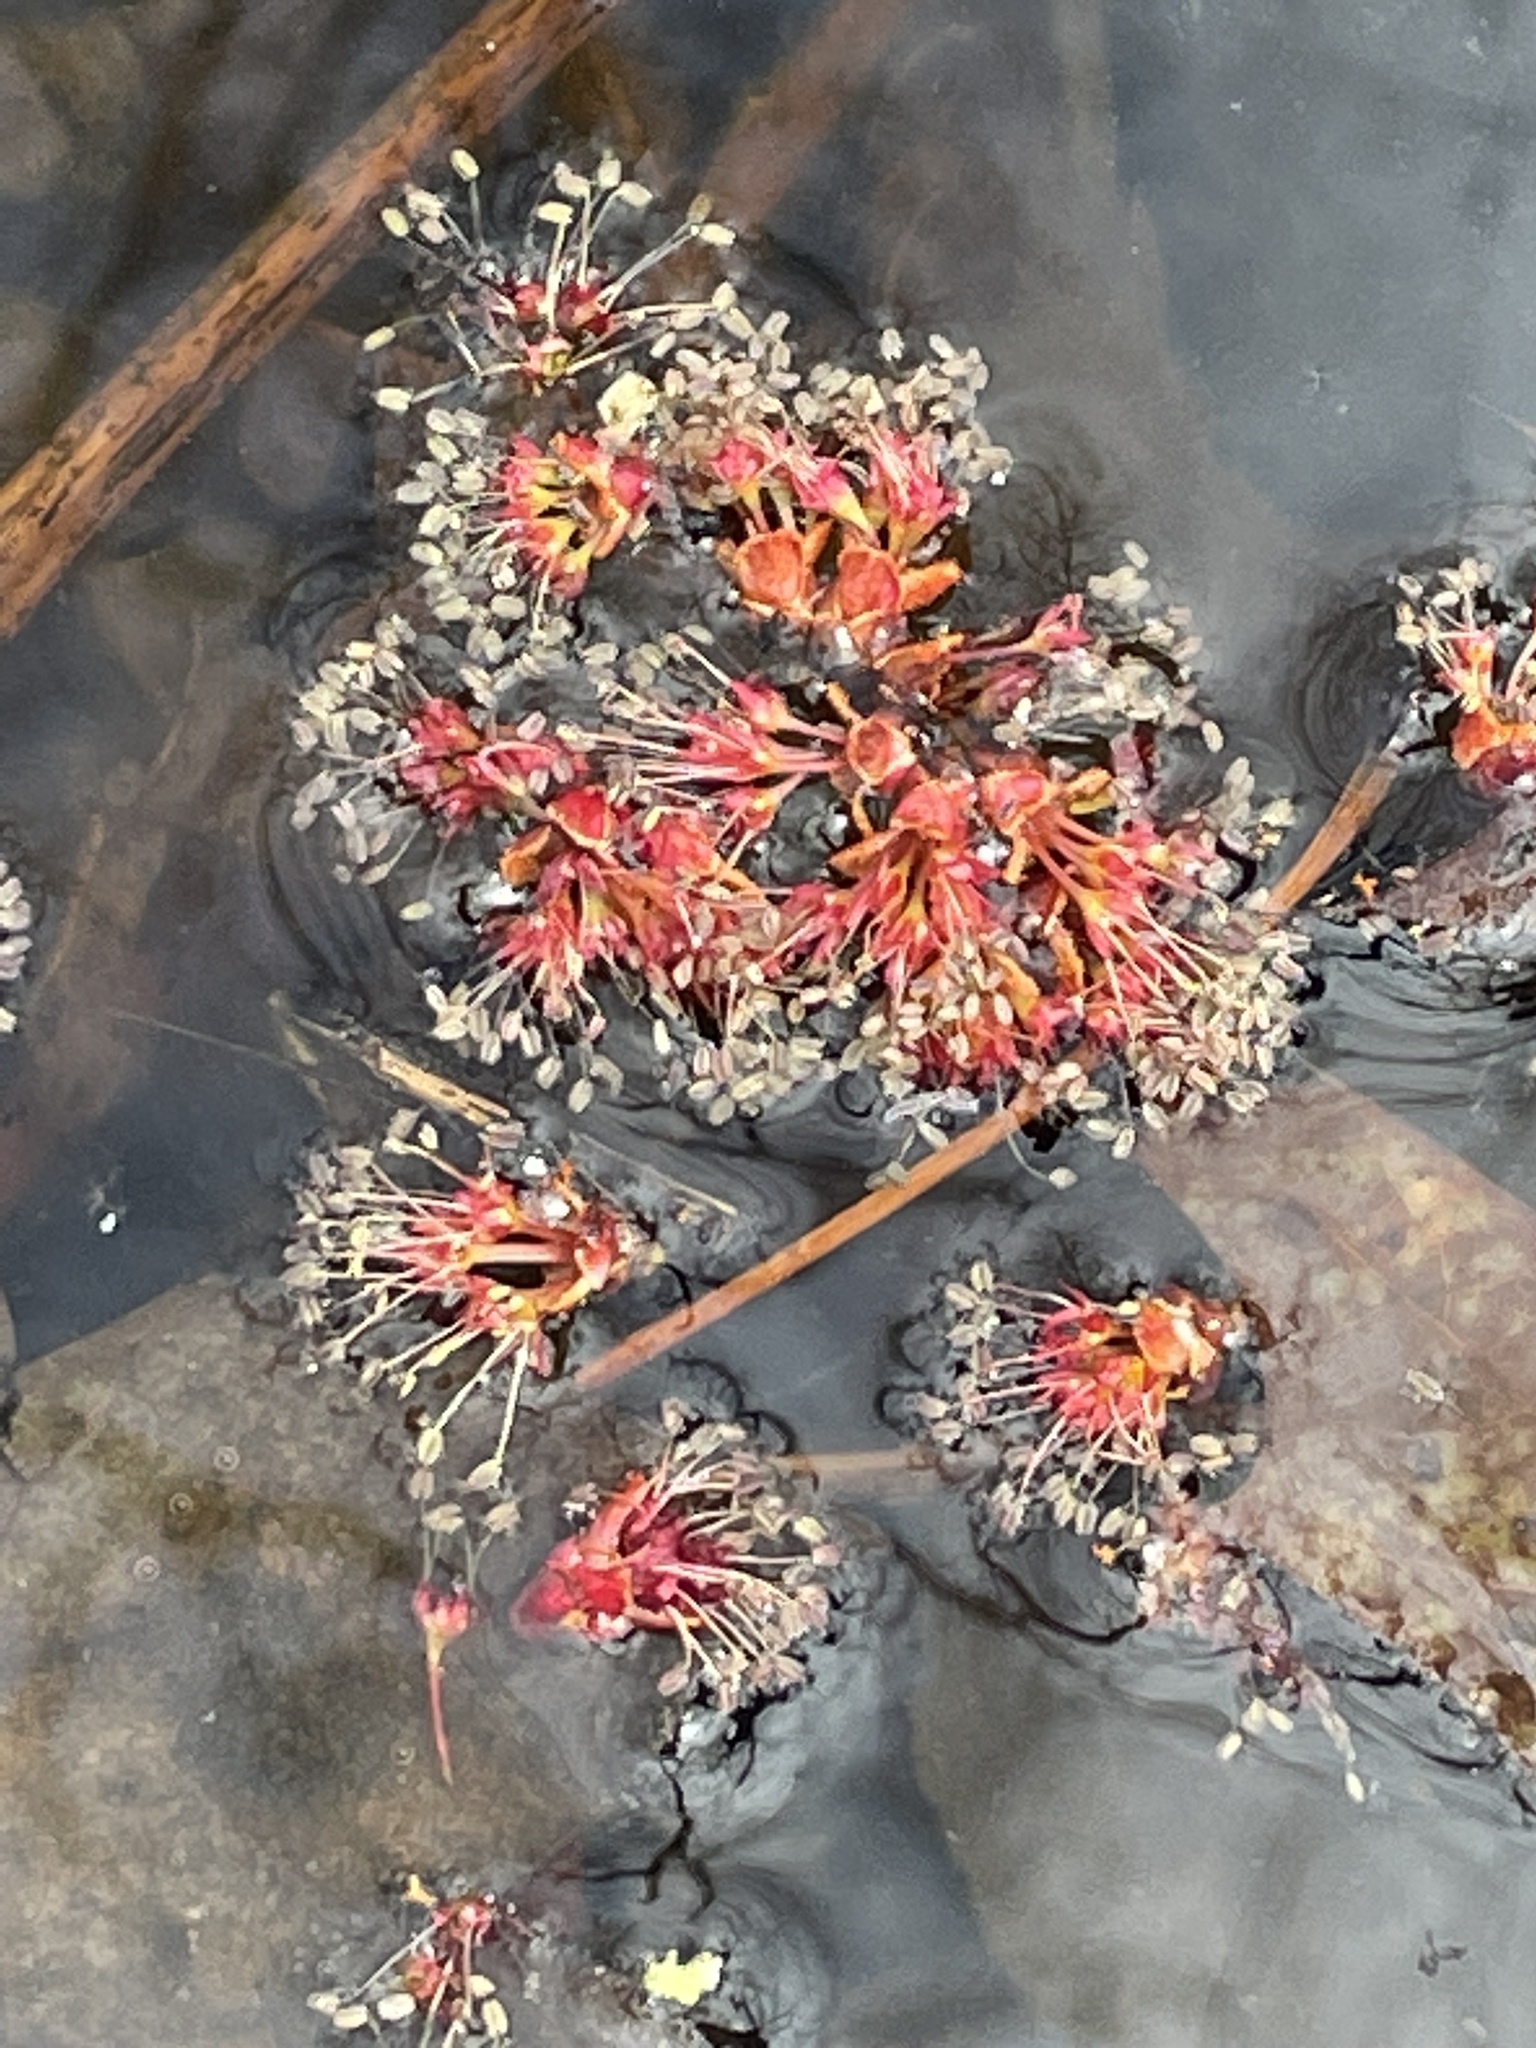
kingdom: Plantae
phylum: Tracheophyta
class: Magnoliopsida
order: Sapindales
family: Sapindaceae
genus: Acer
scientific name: Acer rubrum
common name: Red maple
